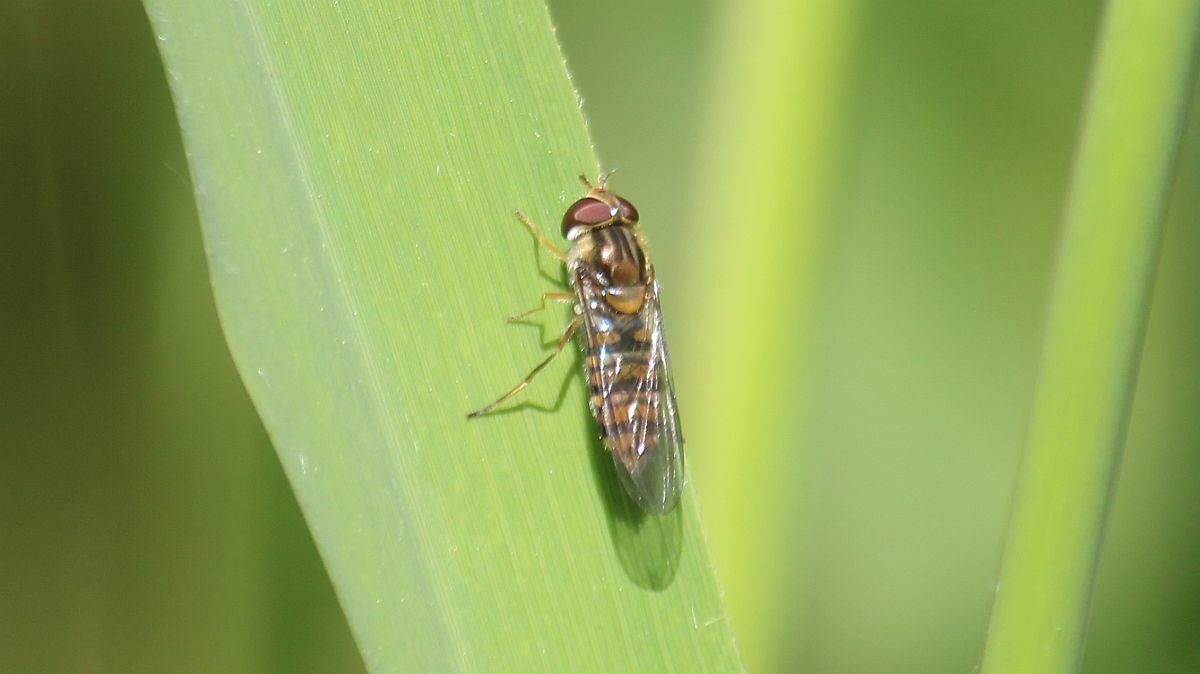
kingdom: Animalia
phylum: Arthropoda
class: Insecta
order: Diptera
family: Syrphidae
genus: Episyrphus
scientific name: Episyrphus balteatus
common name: Marmalade hoverfly
